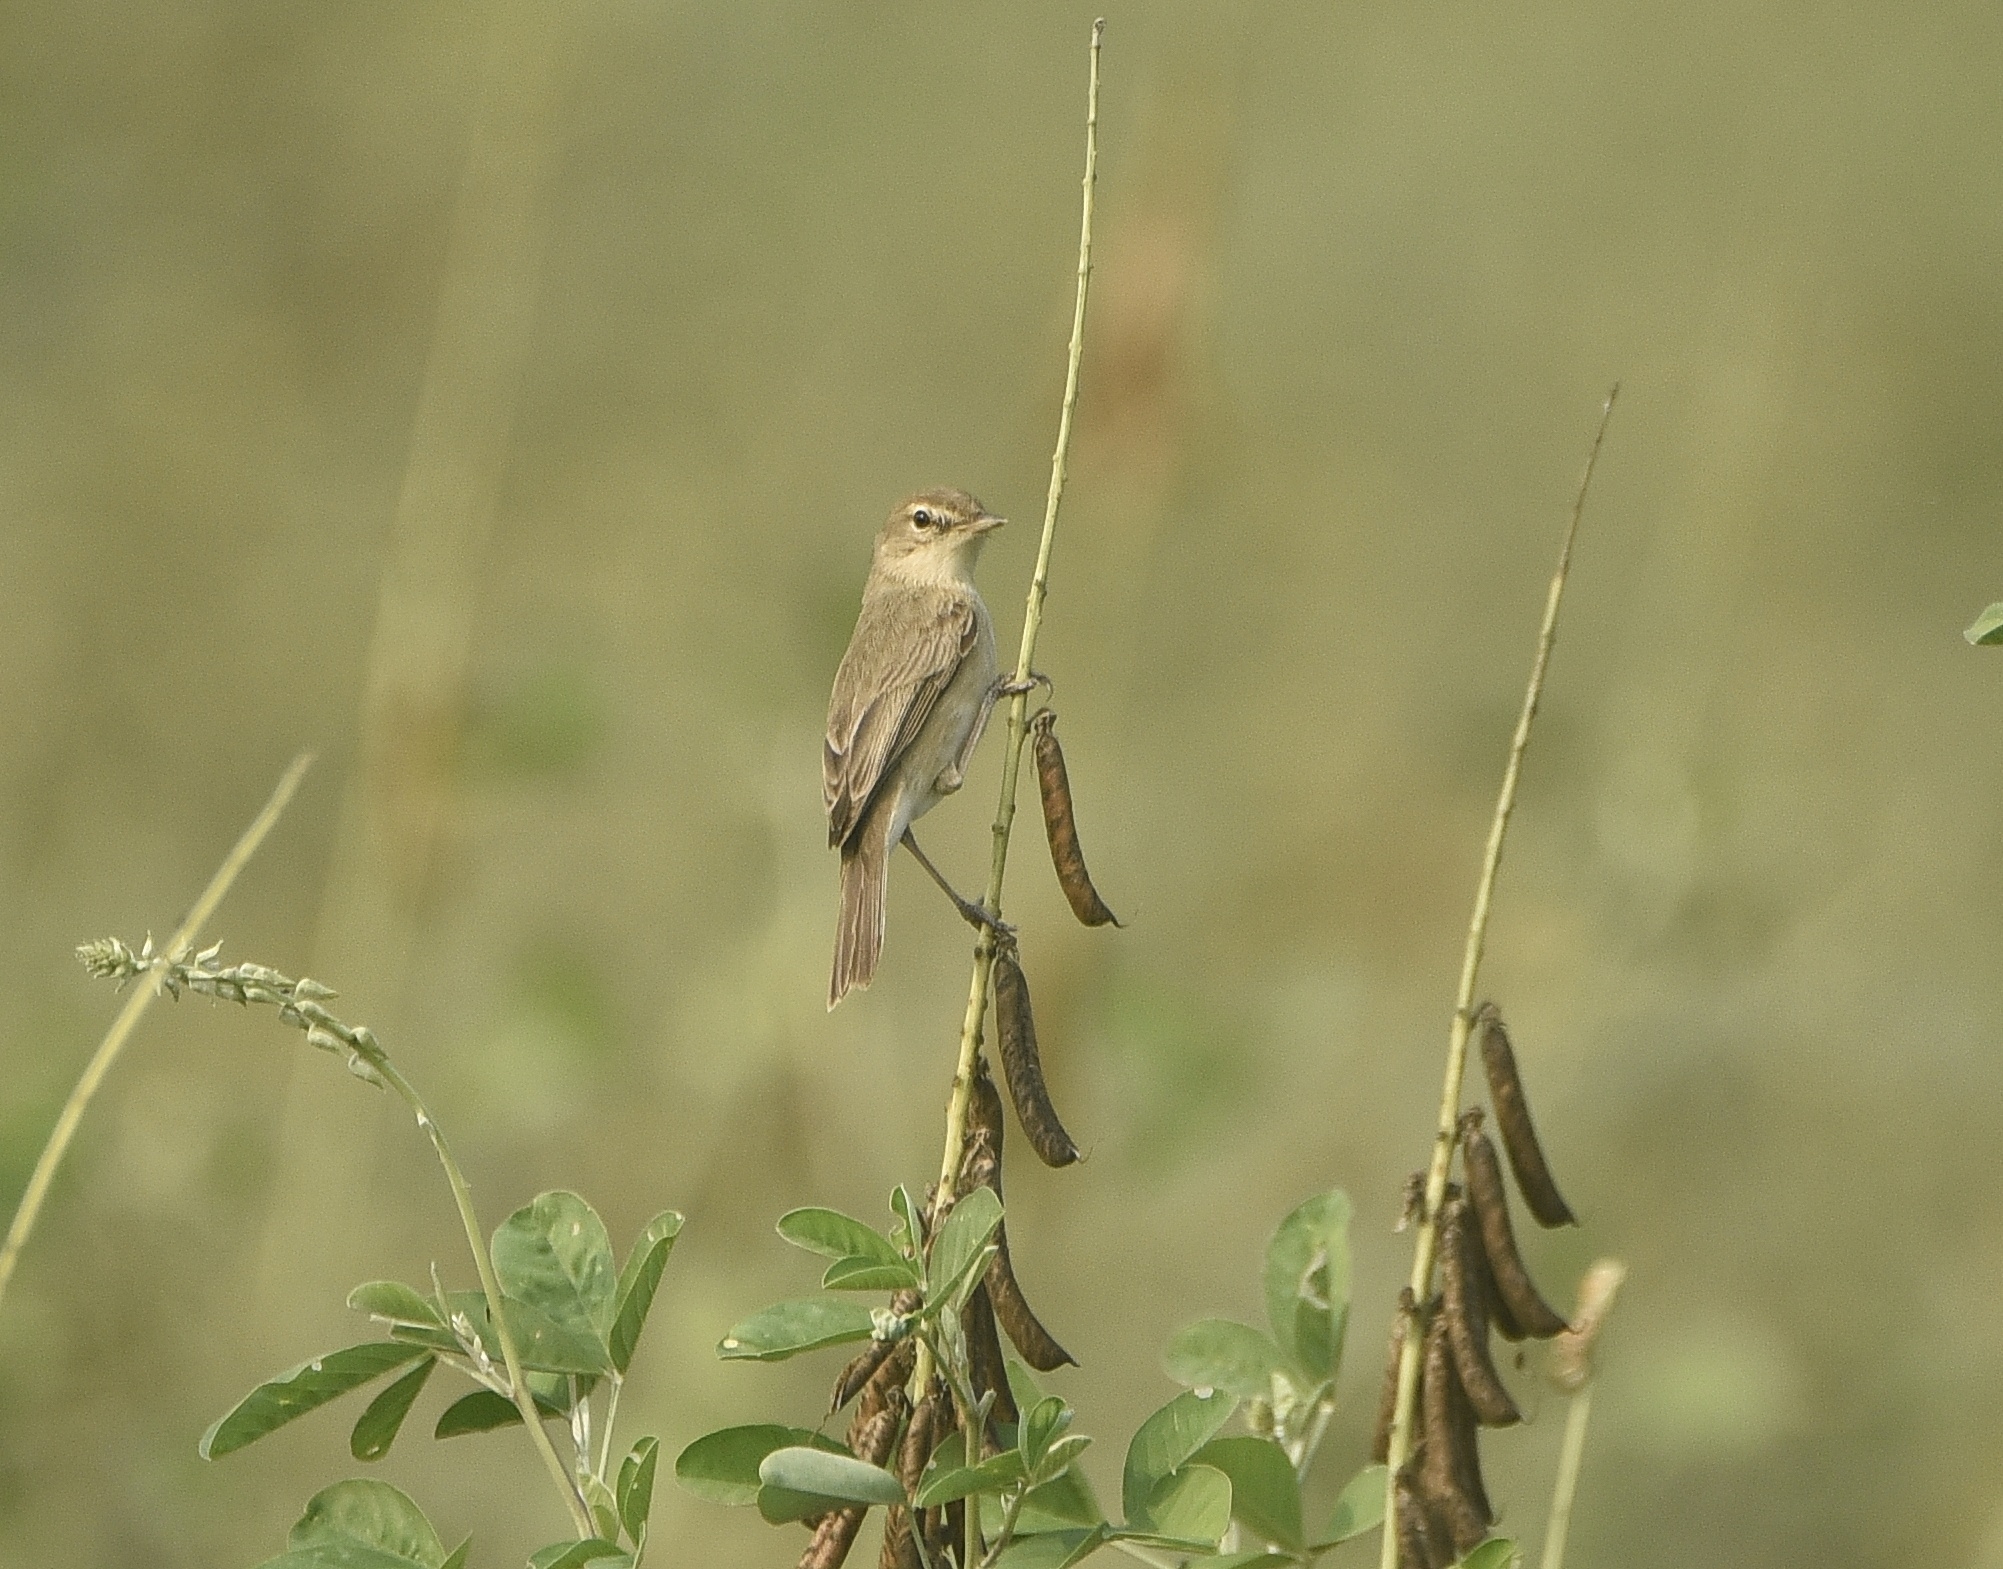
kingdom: Animalia
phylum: Chordata
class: Aves
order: Passeriformes
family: Acrocephalidae
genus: Iduna
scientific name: Iduna caligata
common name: Booted warbler
